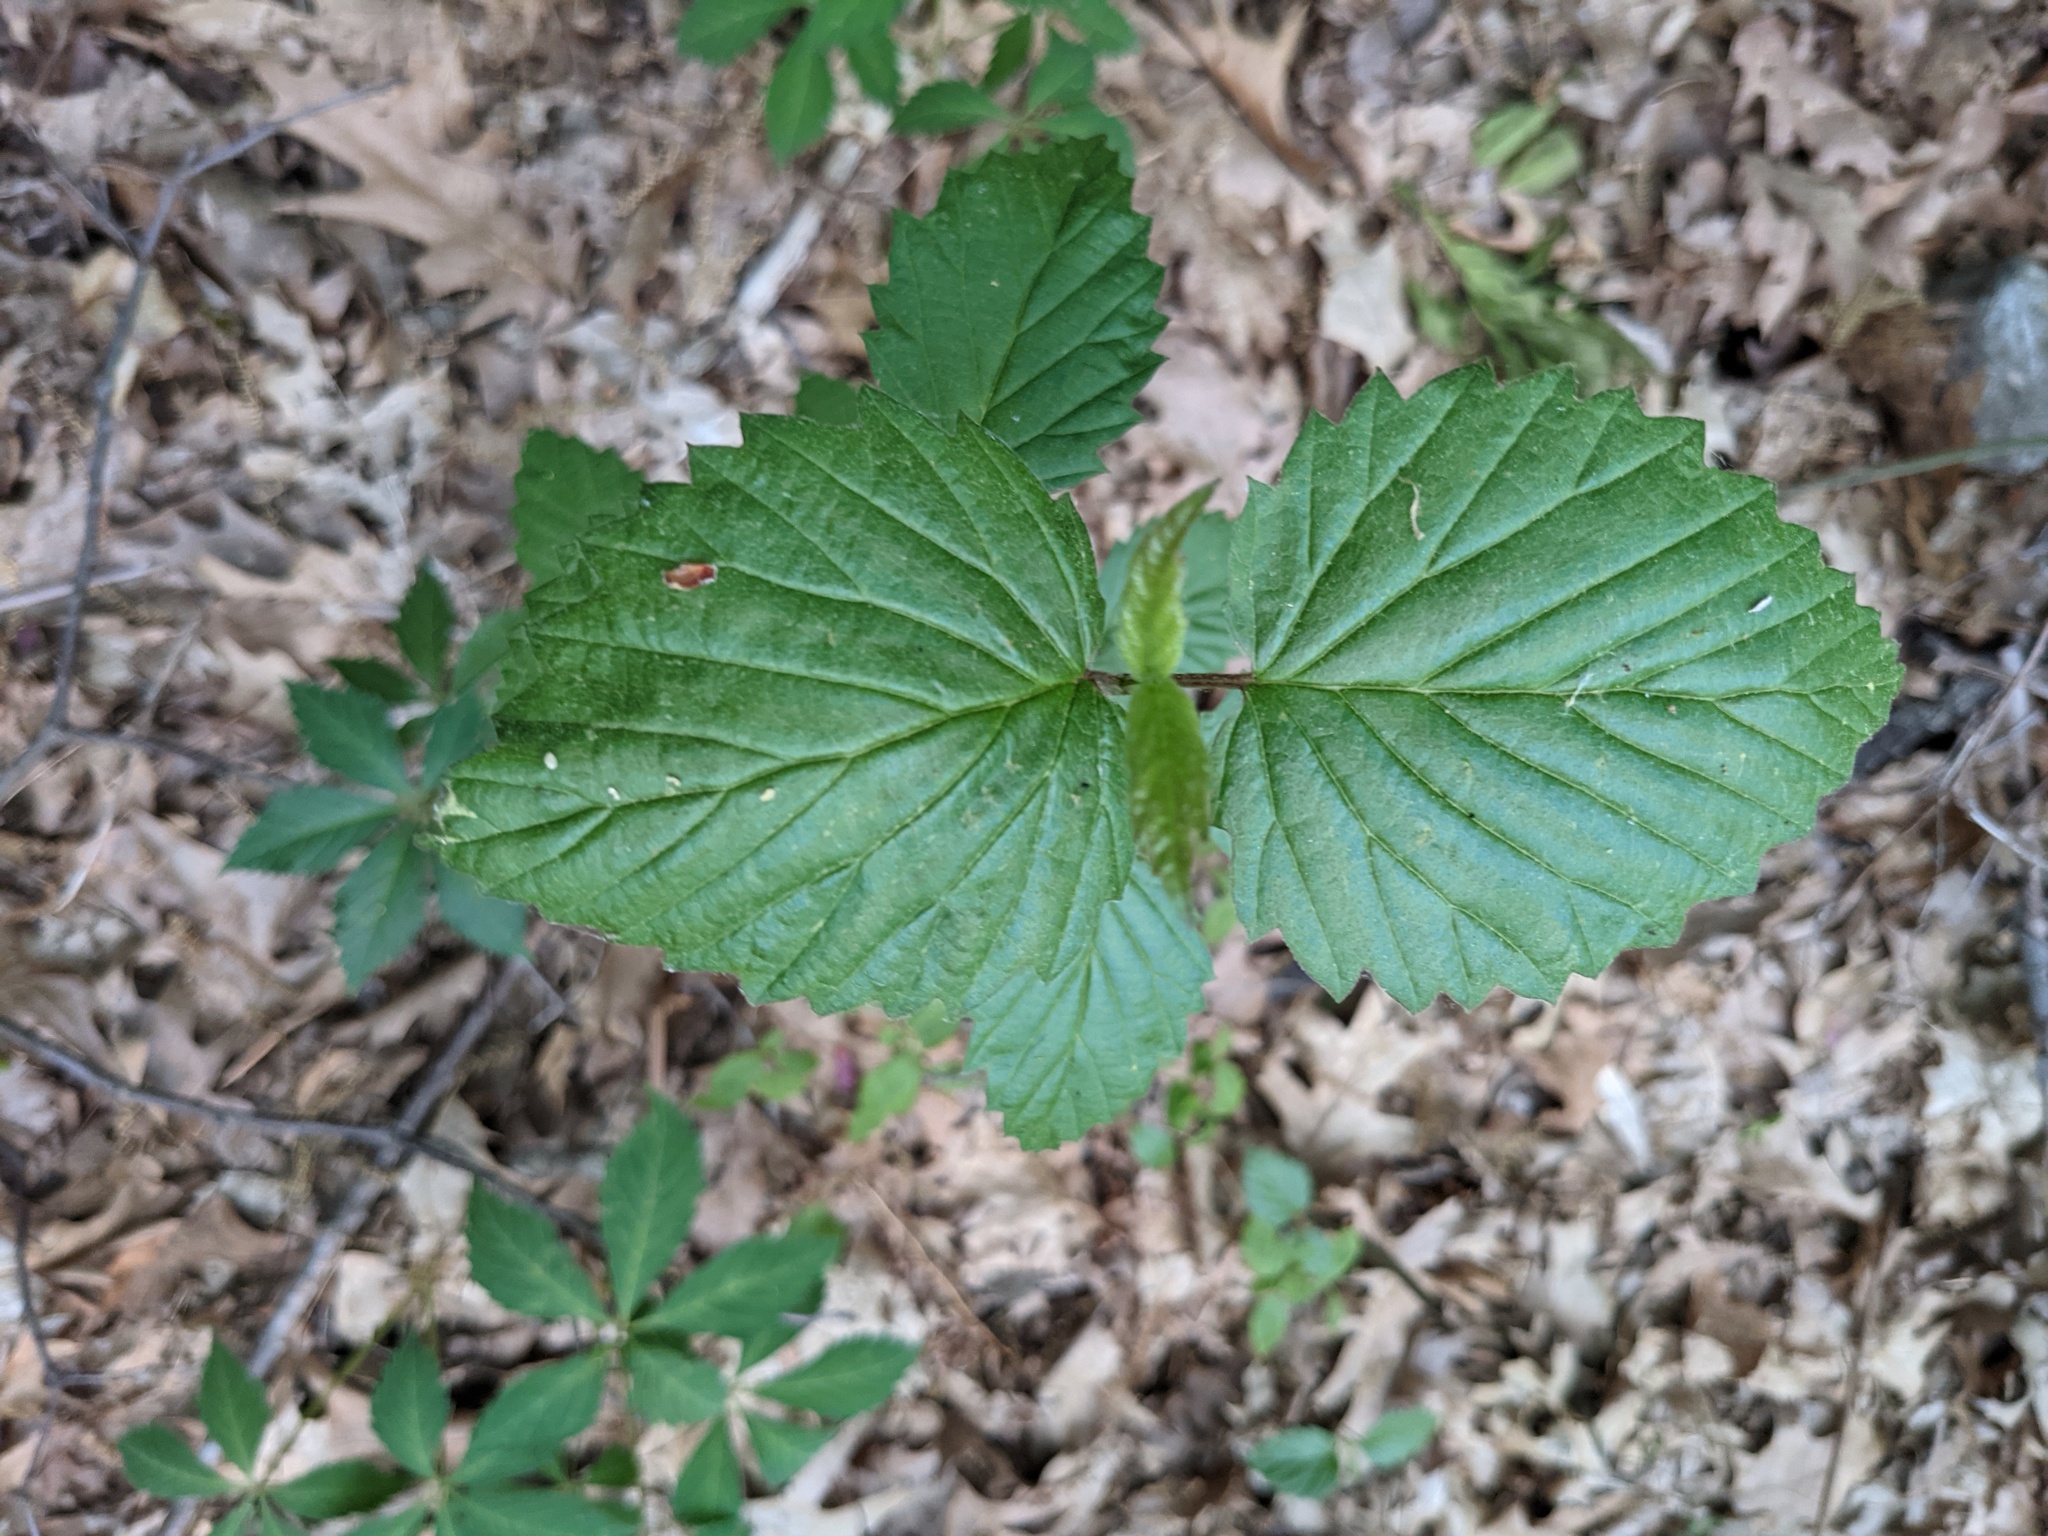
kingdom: Plantae
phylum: Tracheophyta
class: Magnoliopsida
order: Dipsacales
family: Viburnaceae
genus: Viburnum
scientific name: Viburnum dentatum
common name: Arrow-wood
